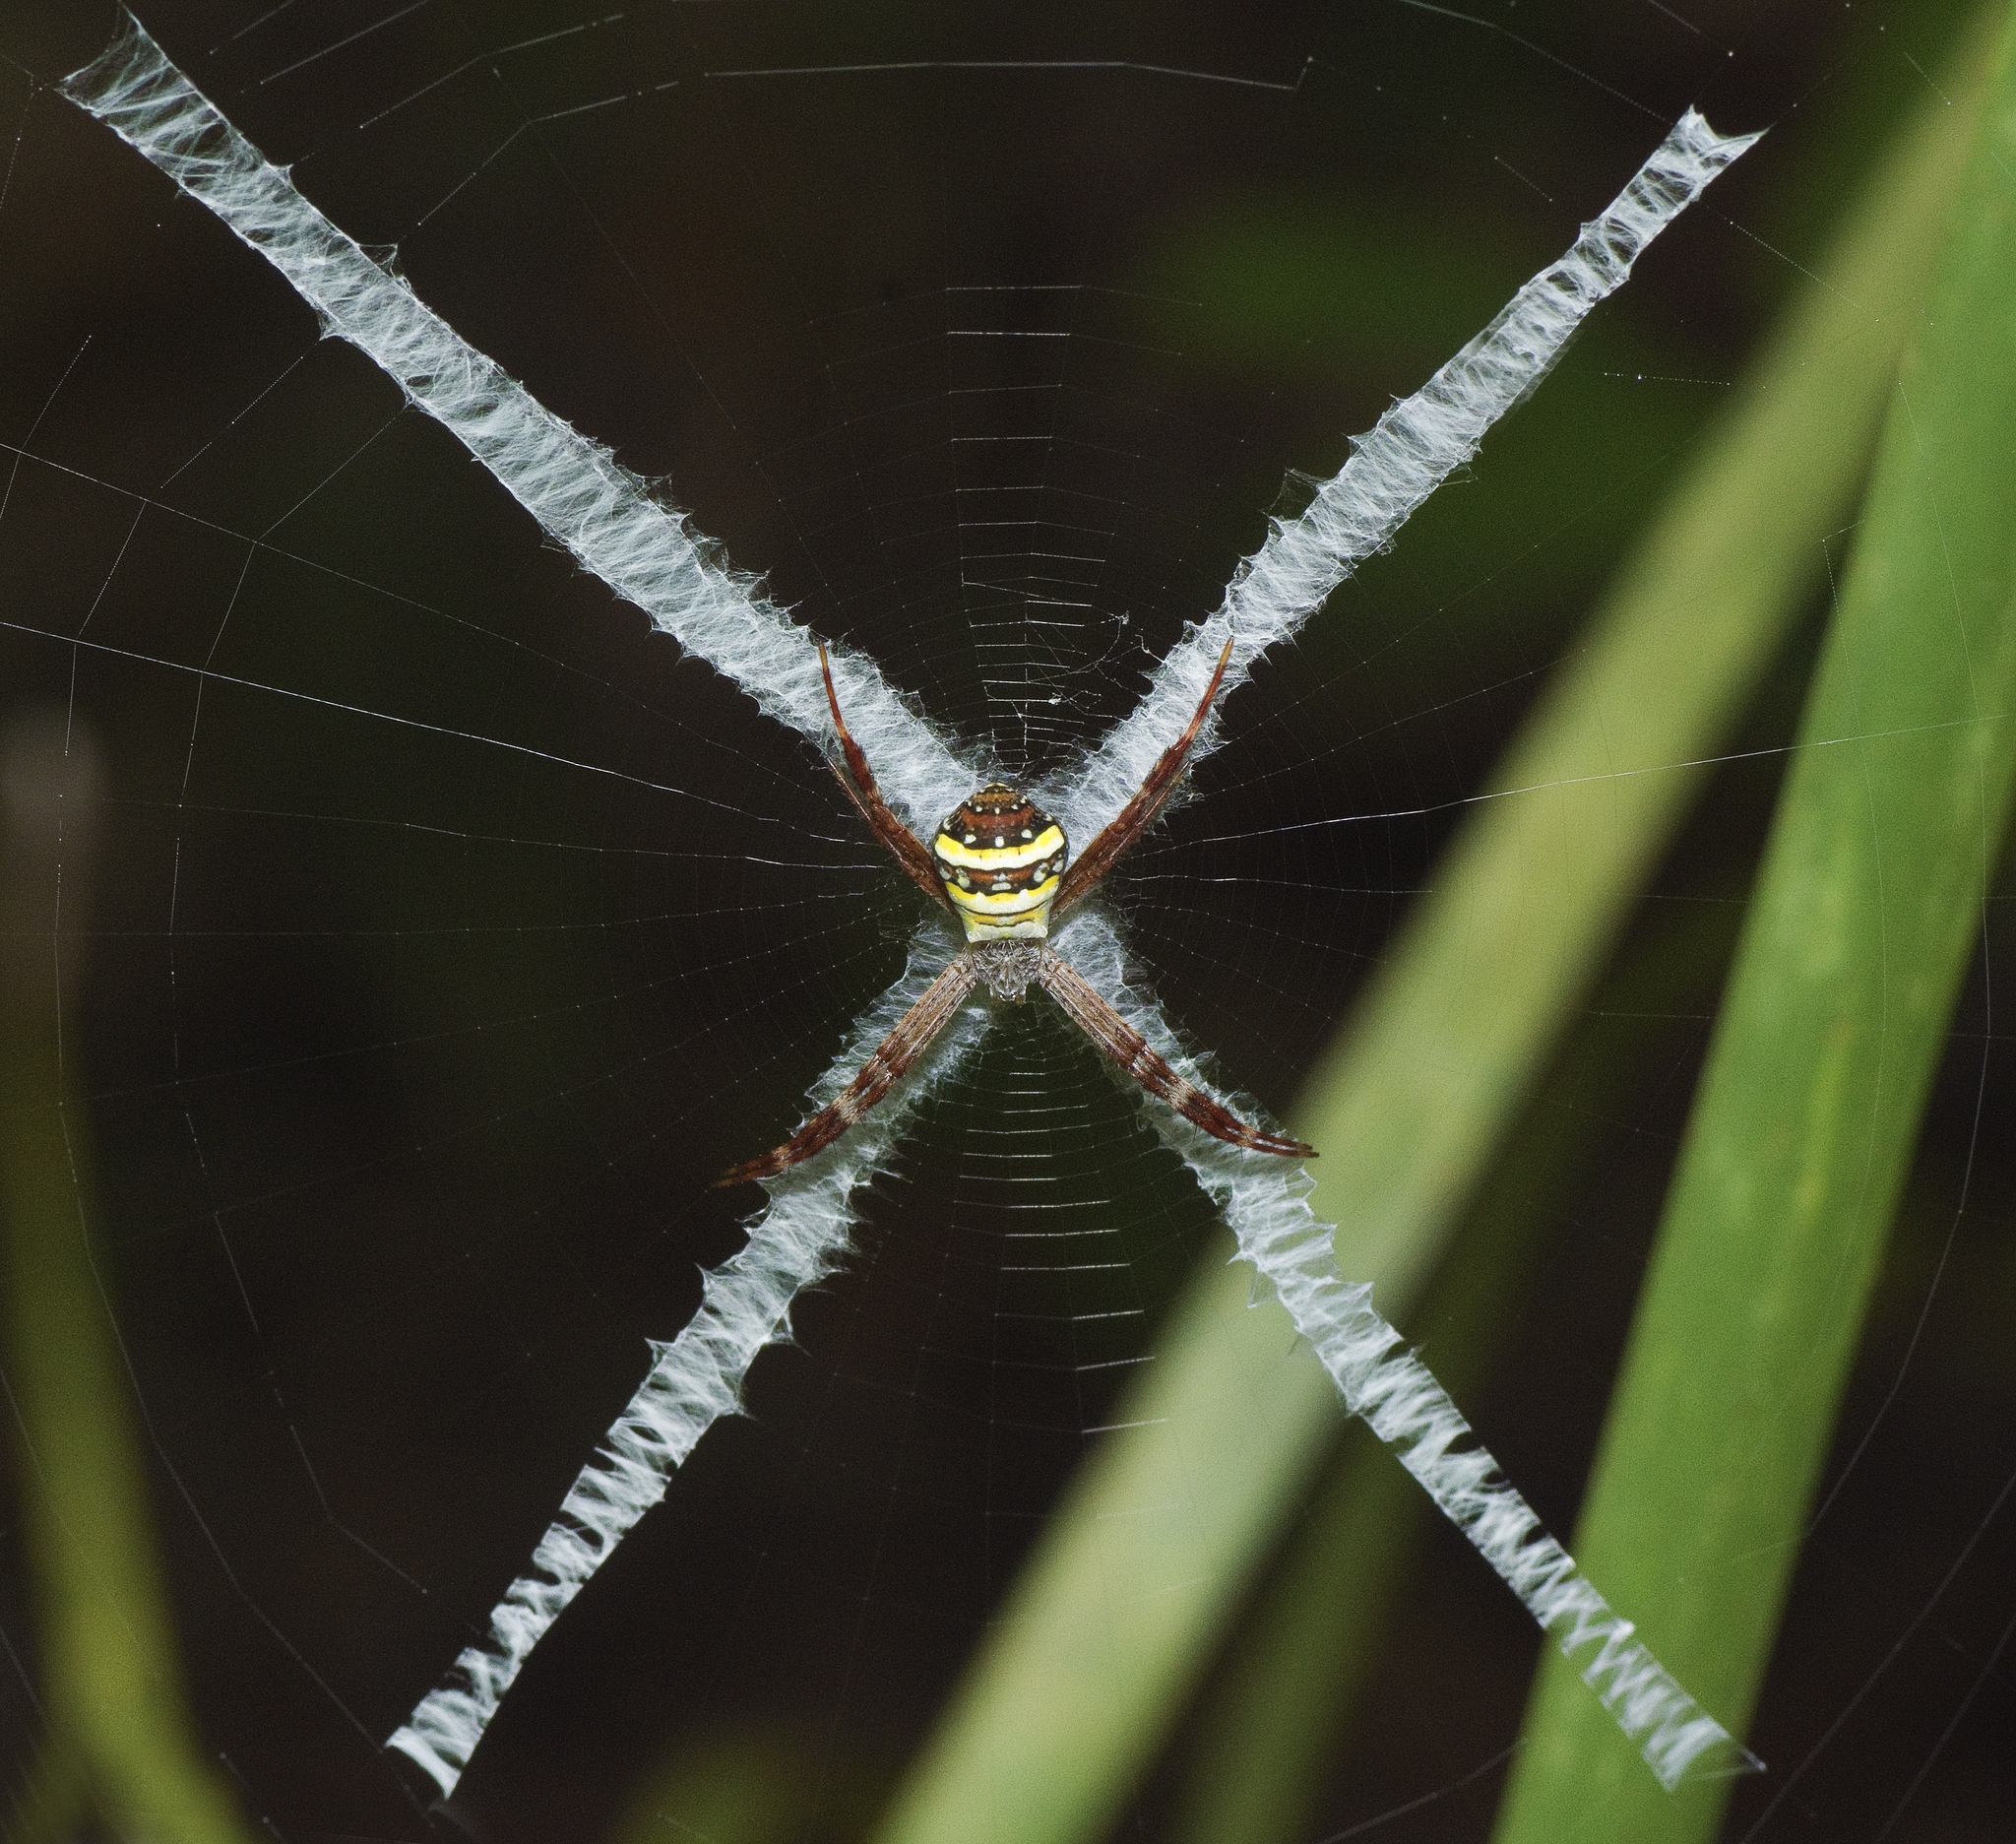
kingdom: Animalia
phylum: Arthropoda
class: Arachnida
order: Araneae
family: Araneidae
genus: Argiope
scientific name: Argiope aetherea
